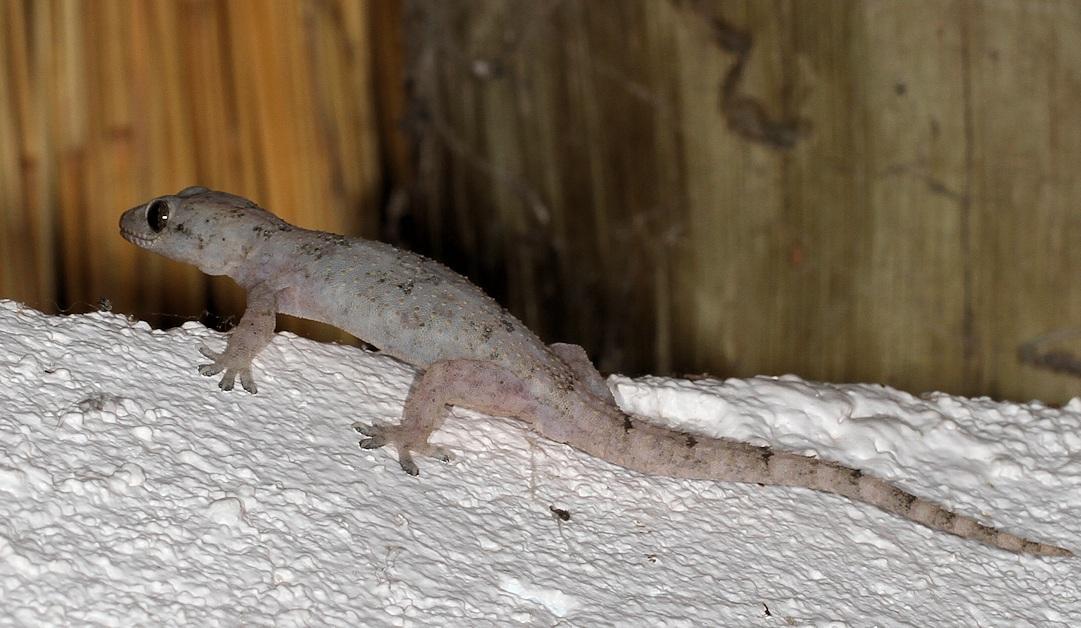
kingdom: Animalia
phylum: Chordata
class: Squamata
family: Gekkonidae
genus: Hemidactylus
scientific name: Hemidactylus mabouia
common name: House gecko
